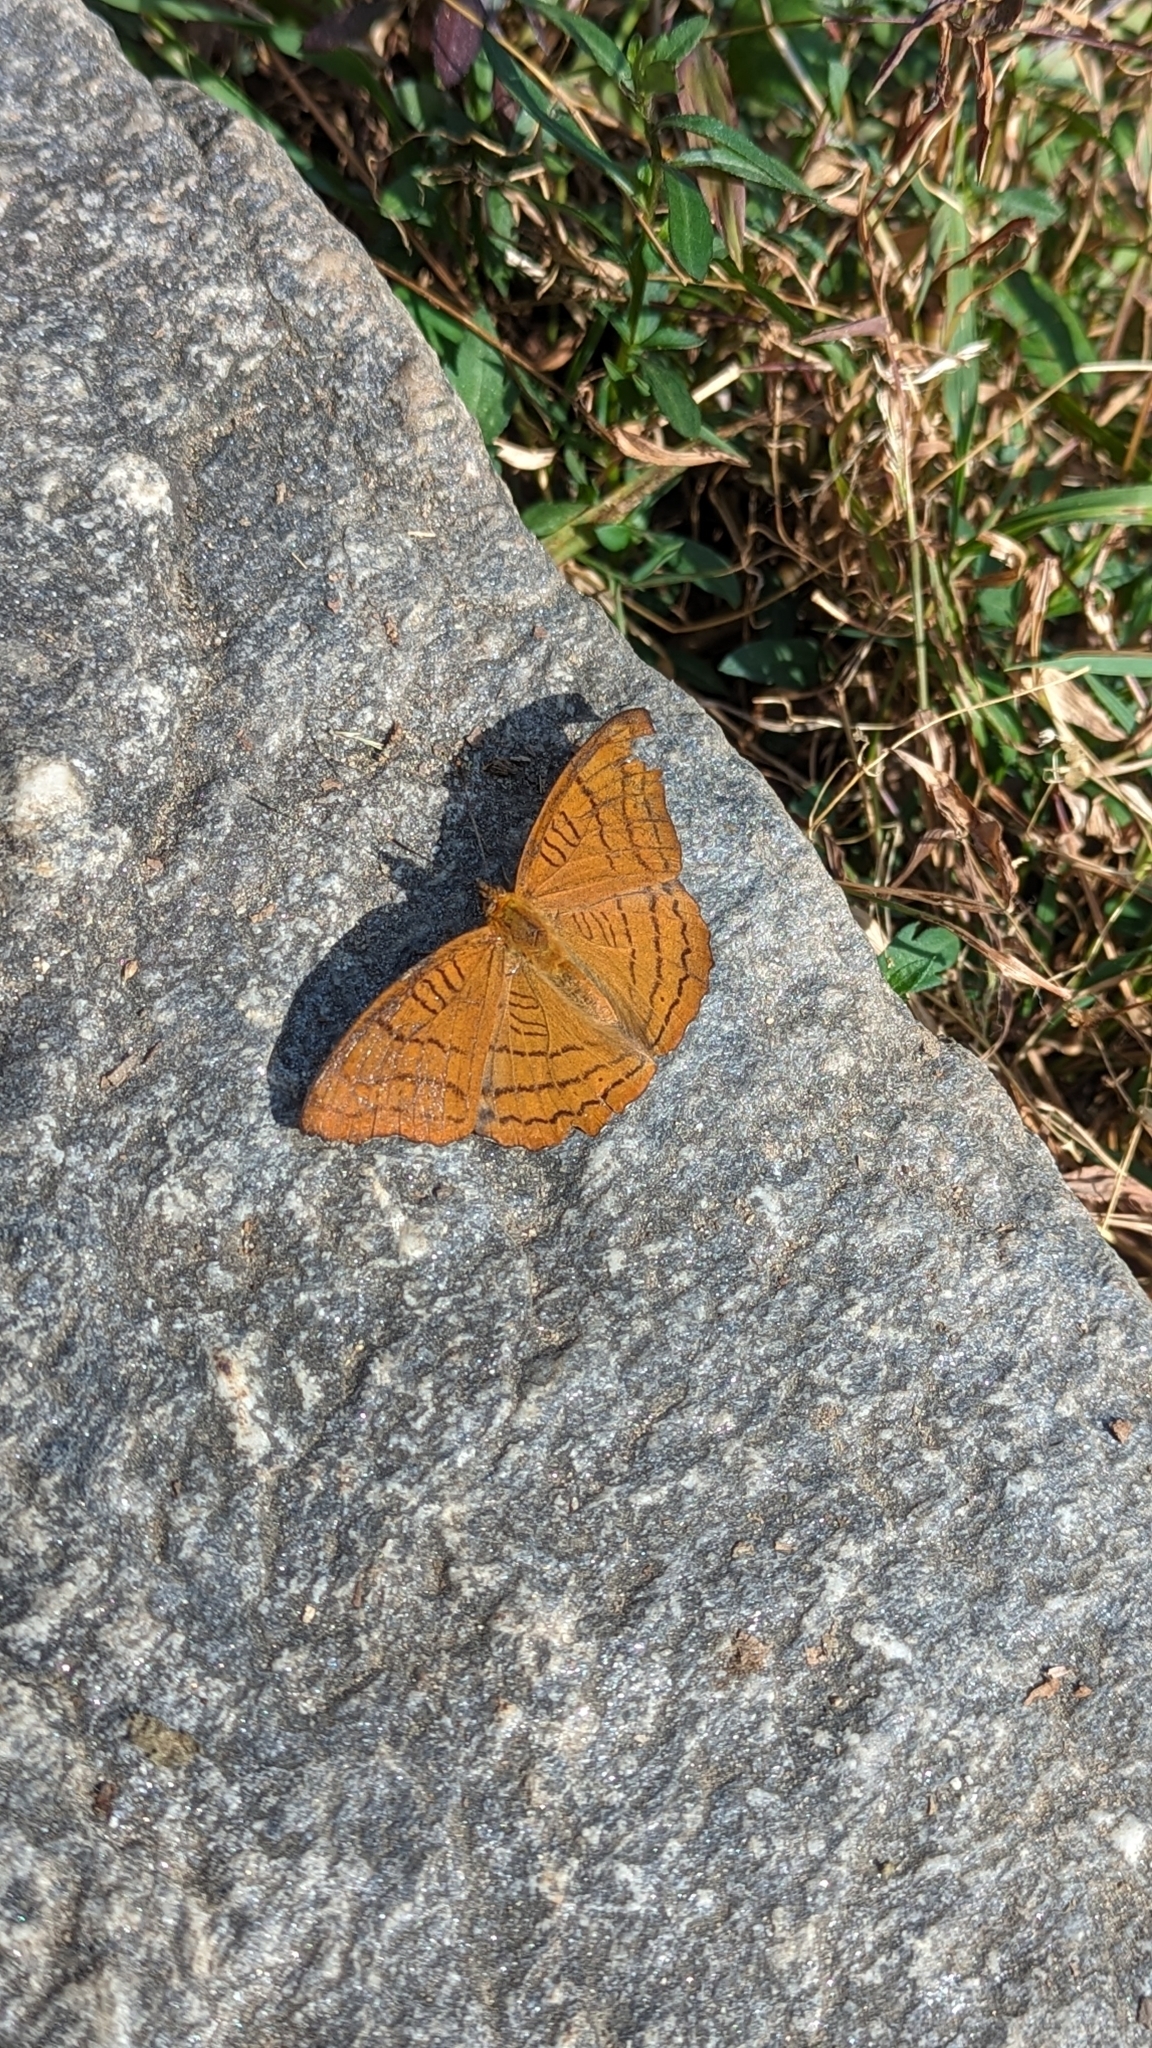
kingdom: Animalia
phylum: Arthropoda
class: Insecta
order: Lepidoptera
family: Nymphalidae
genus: Pseudergolis
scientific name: Pseudergolis wedah
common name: Tabby
